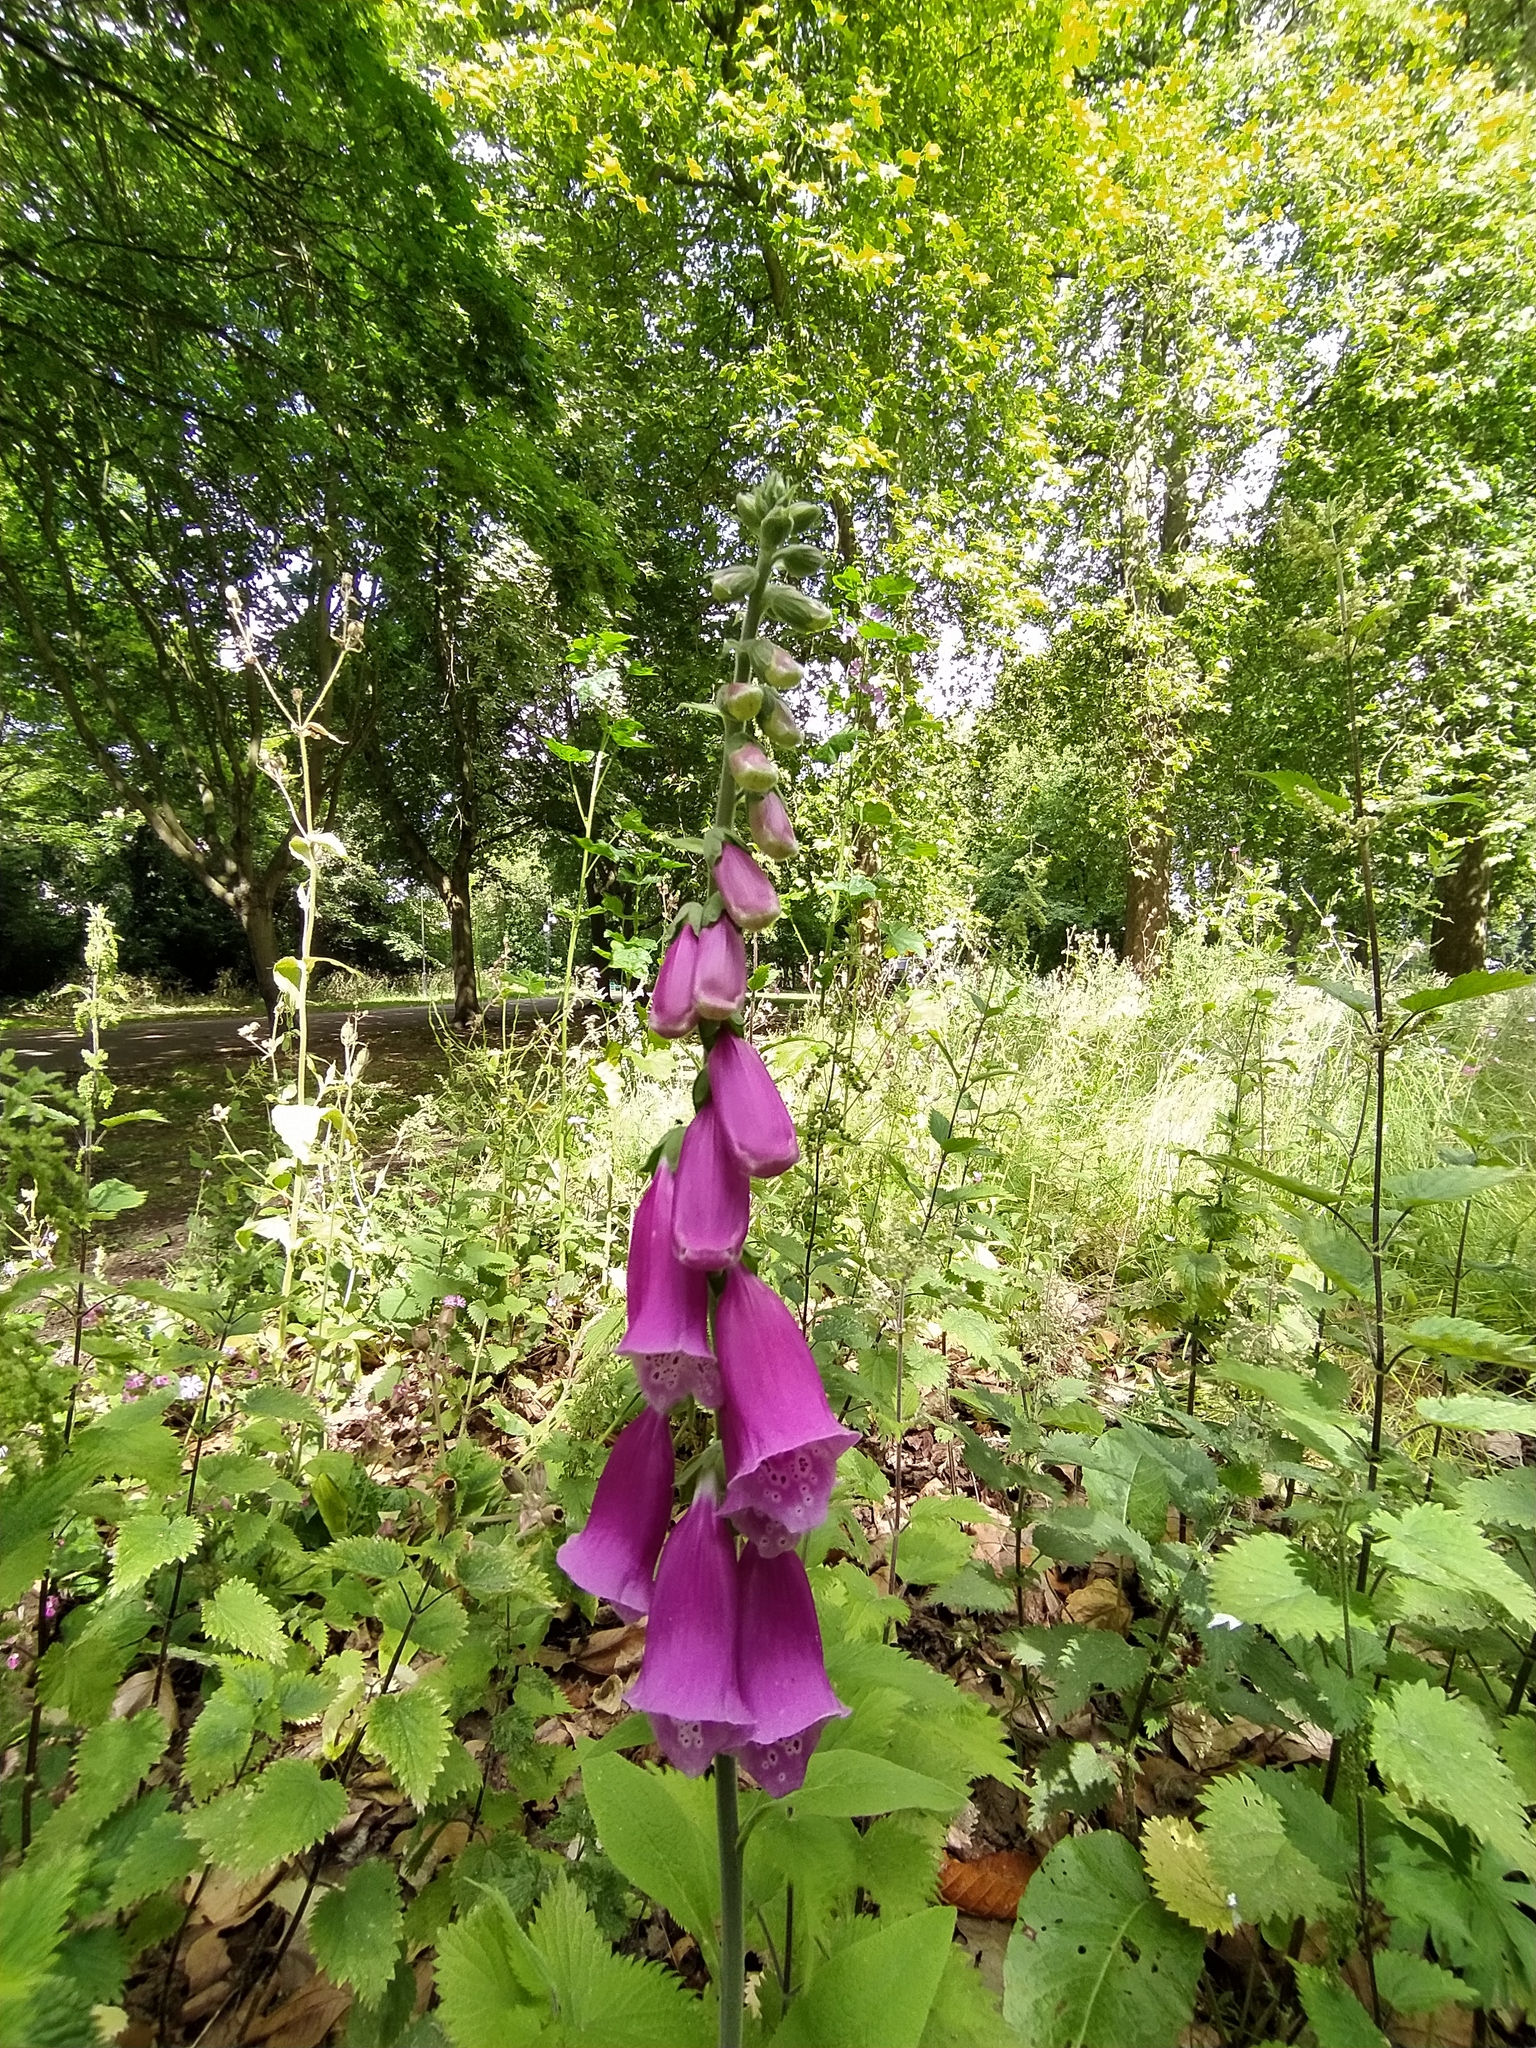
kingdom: Plantae
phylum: Tracheophyta
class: Magnoliopsida
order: Lamiales
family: Plantaginaceae
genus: Digitalis
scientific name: Digitalis purpurea
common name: Foxglove
